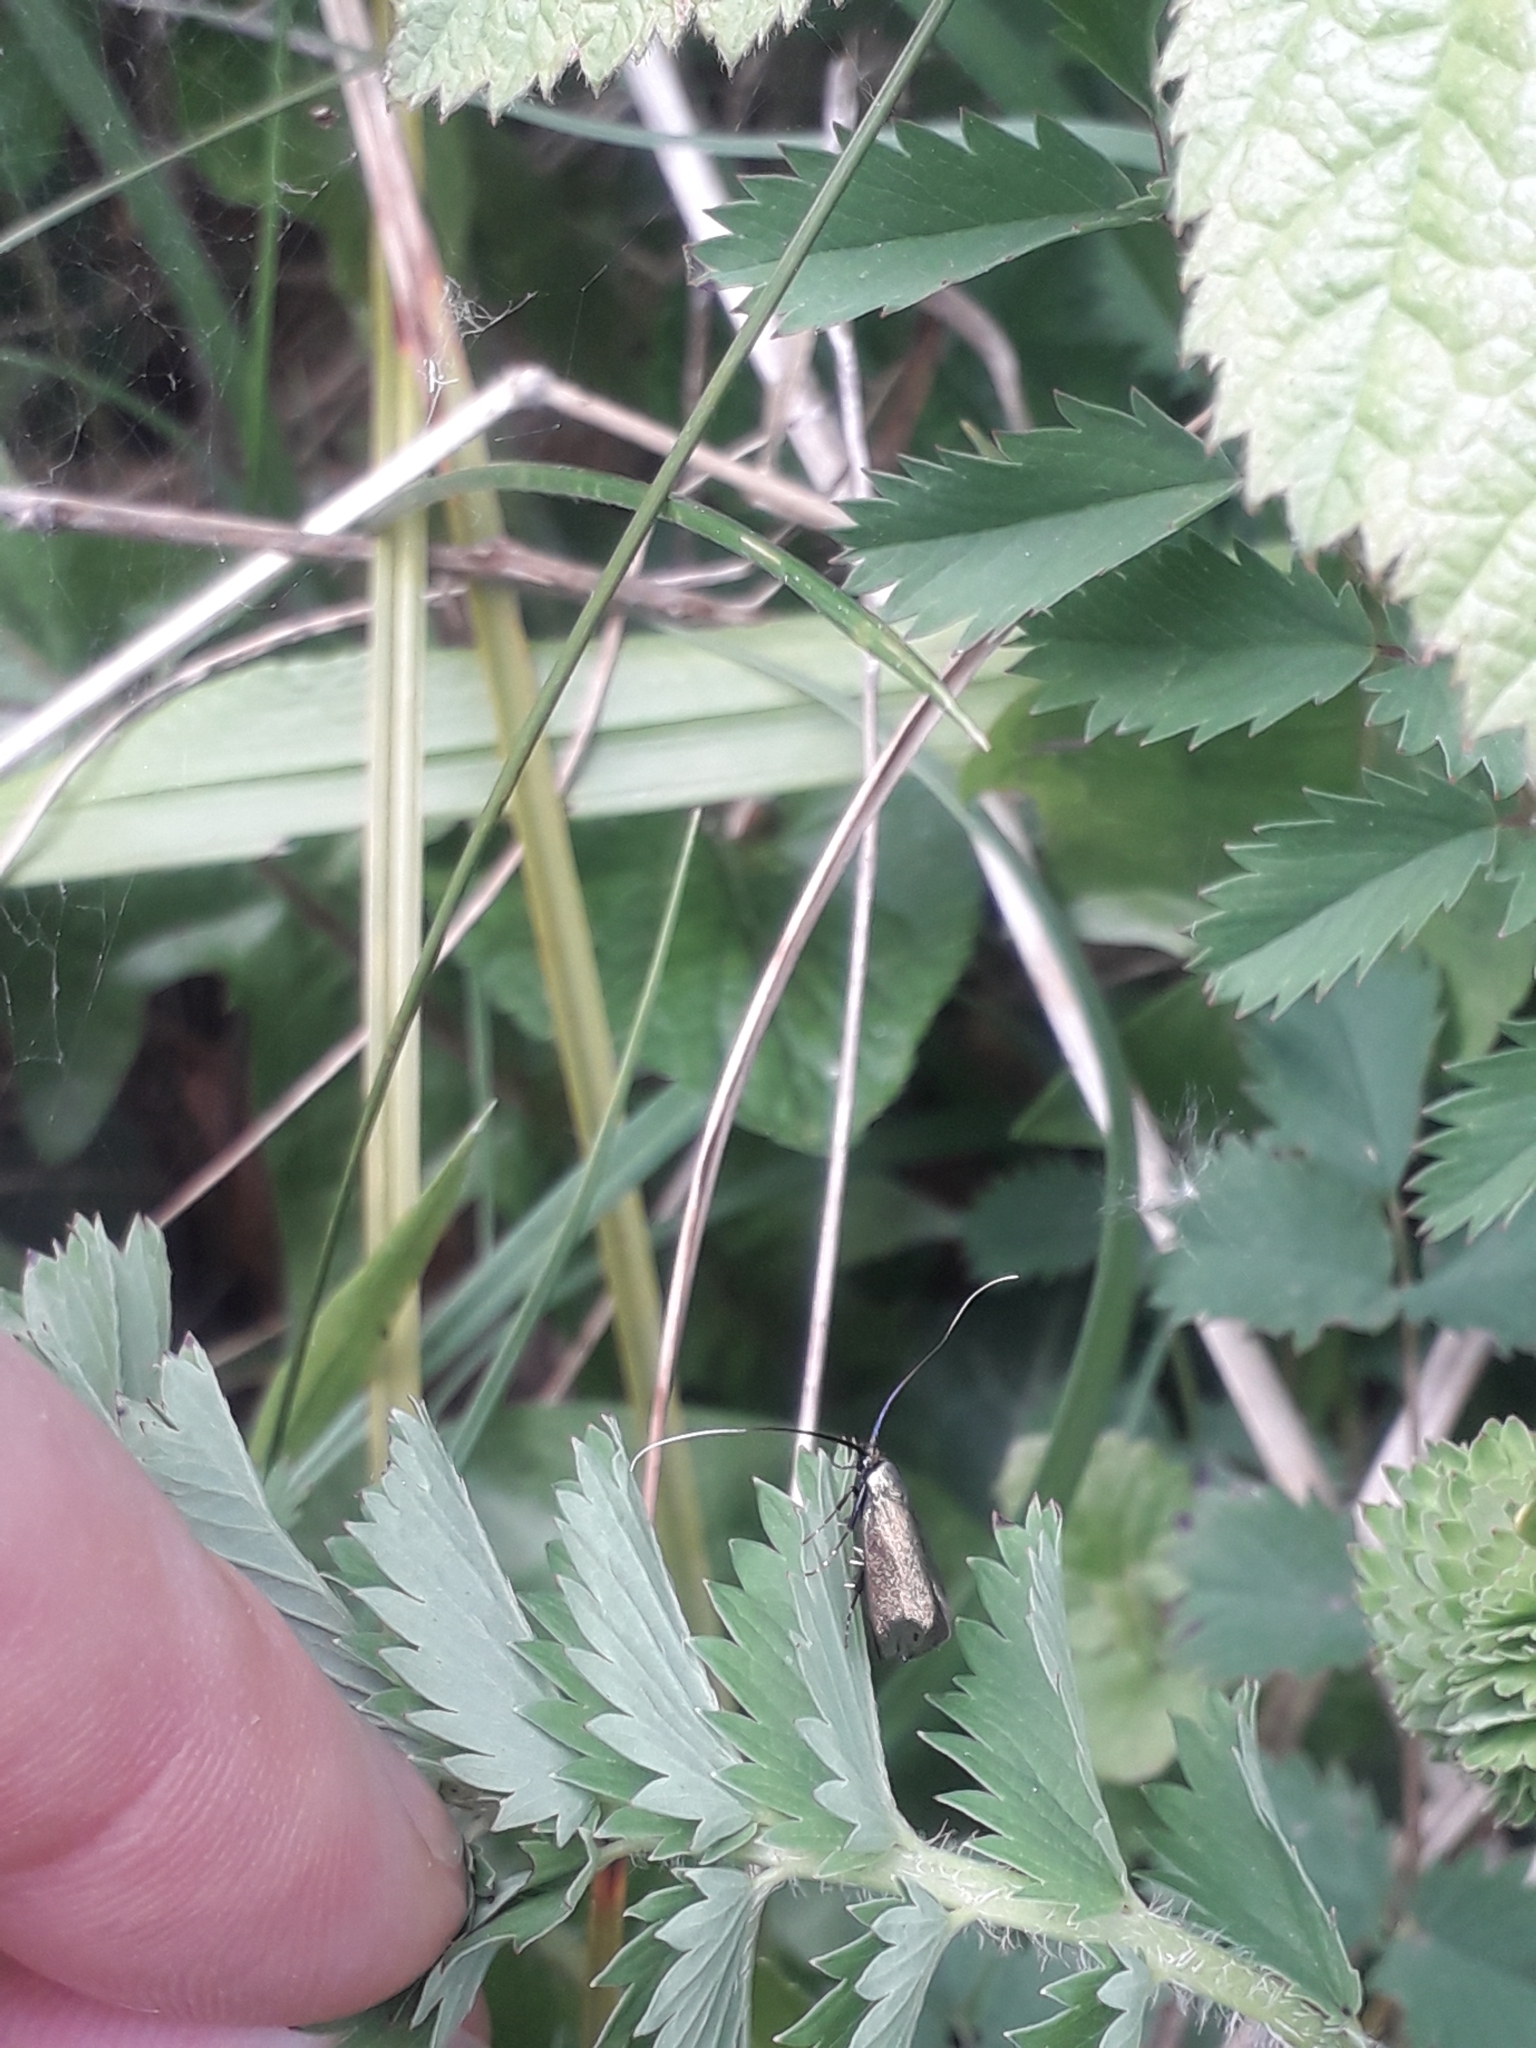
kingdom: Animalia
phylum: Arthropoda
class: Insecta
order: Lepidoptera
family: Adelidae
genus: Adela
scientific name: Adela viridella
